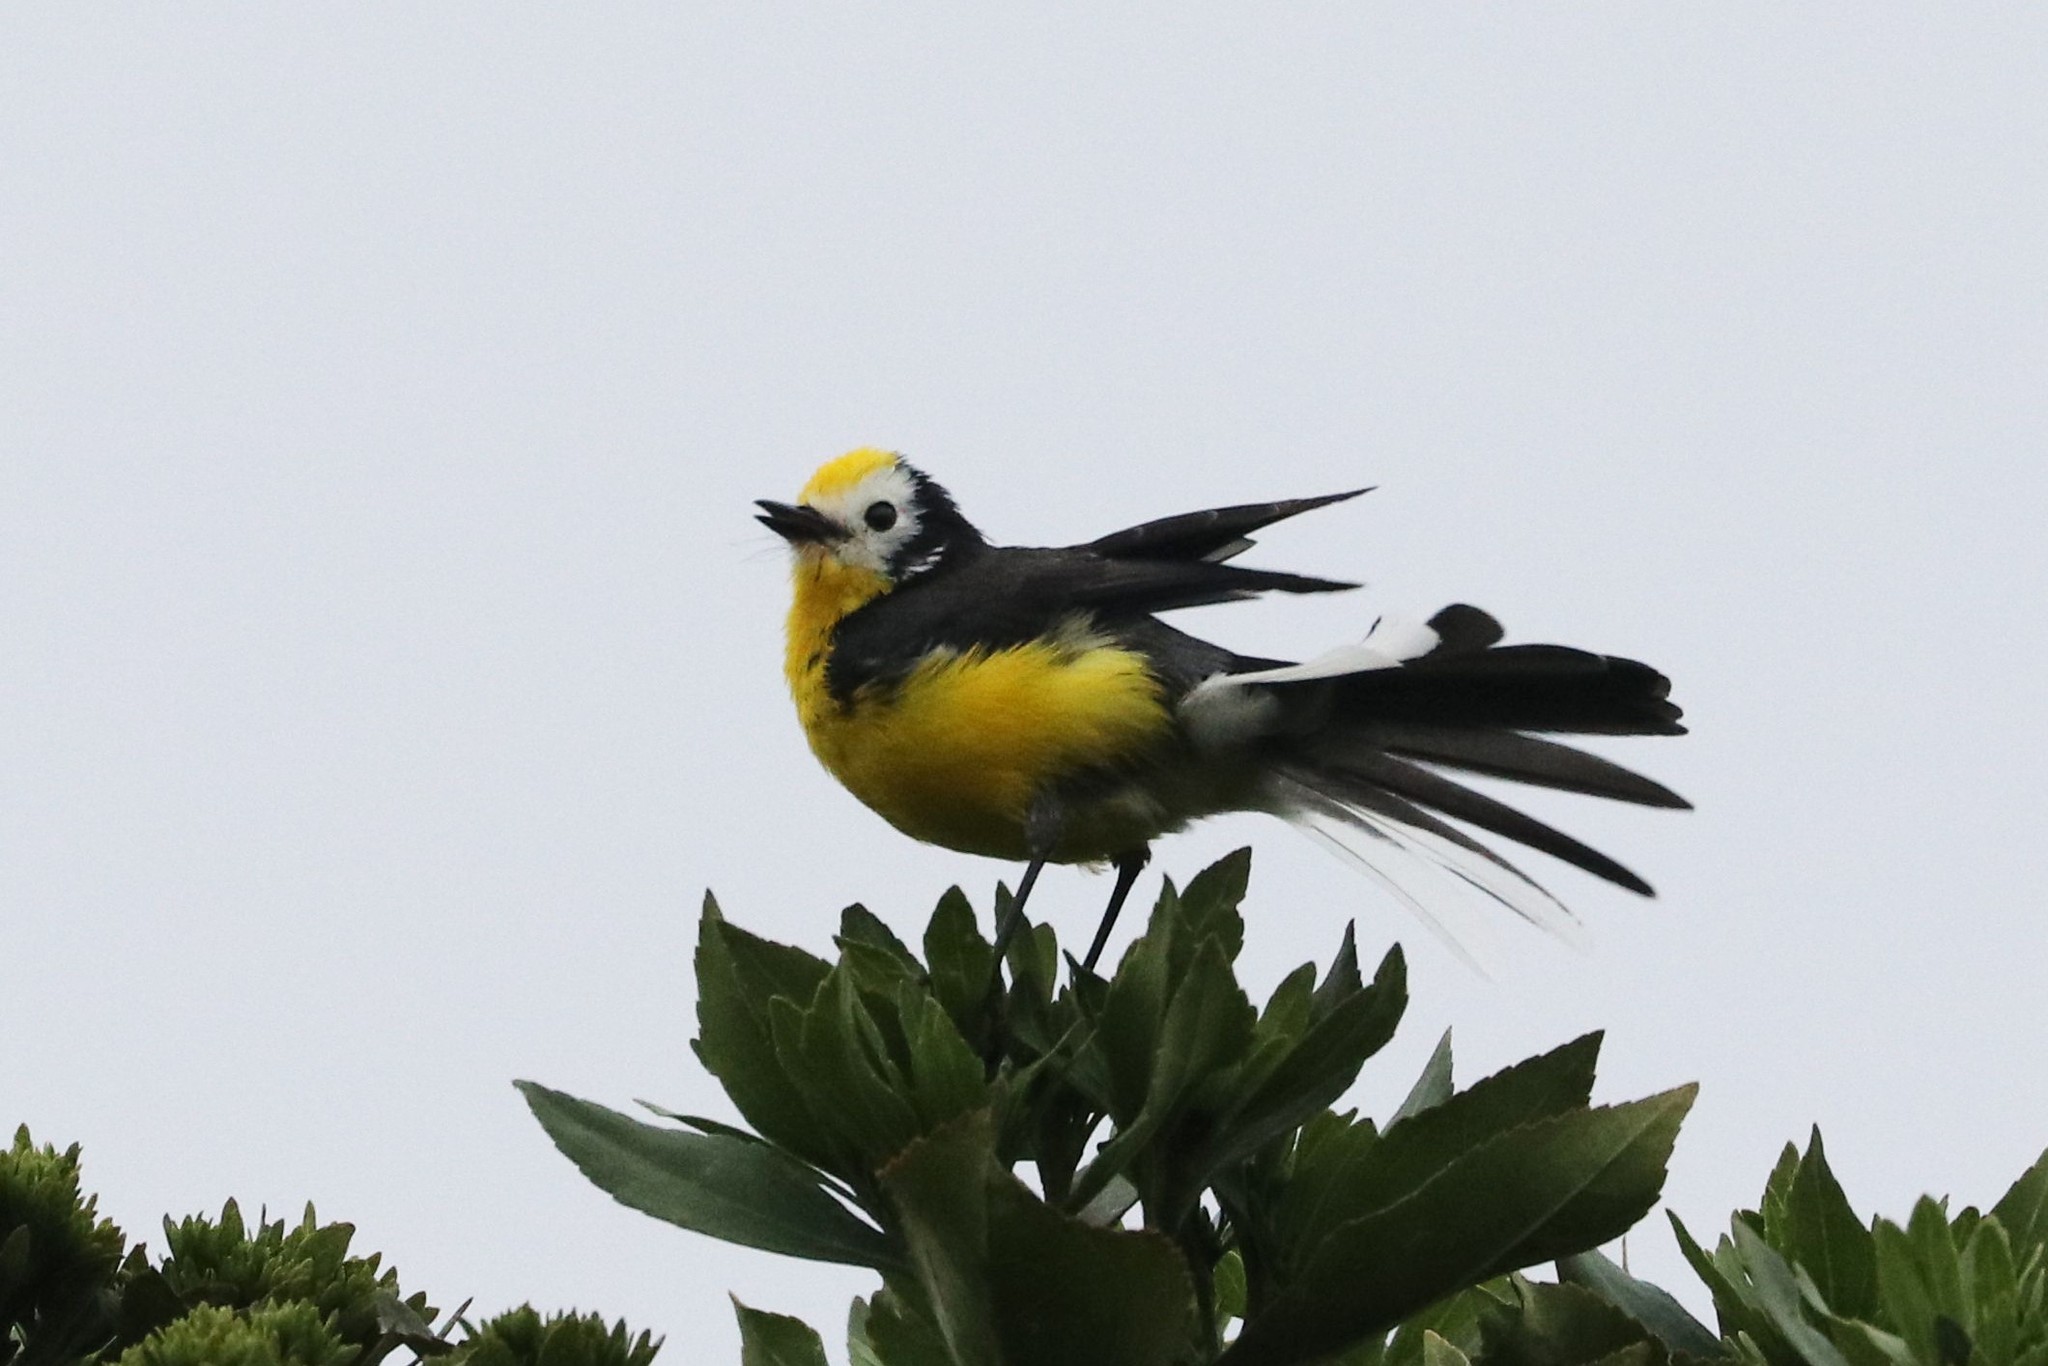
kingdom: Animalia
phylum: Chordata
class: Aves
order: Passeriformes
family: Parulidae
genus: Myioborus
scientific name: Myioborus ornatus
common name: Golden-fronted whitestart
